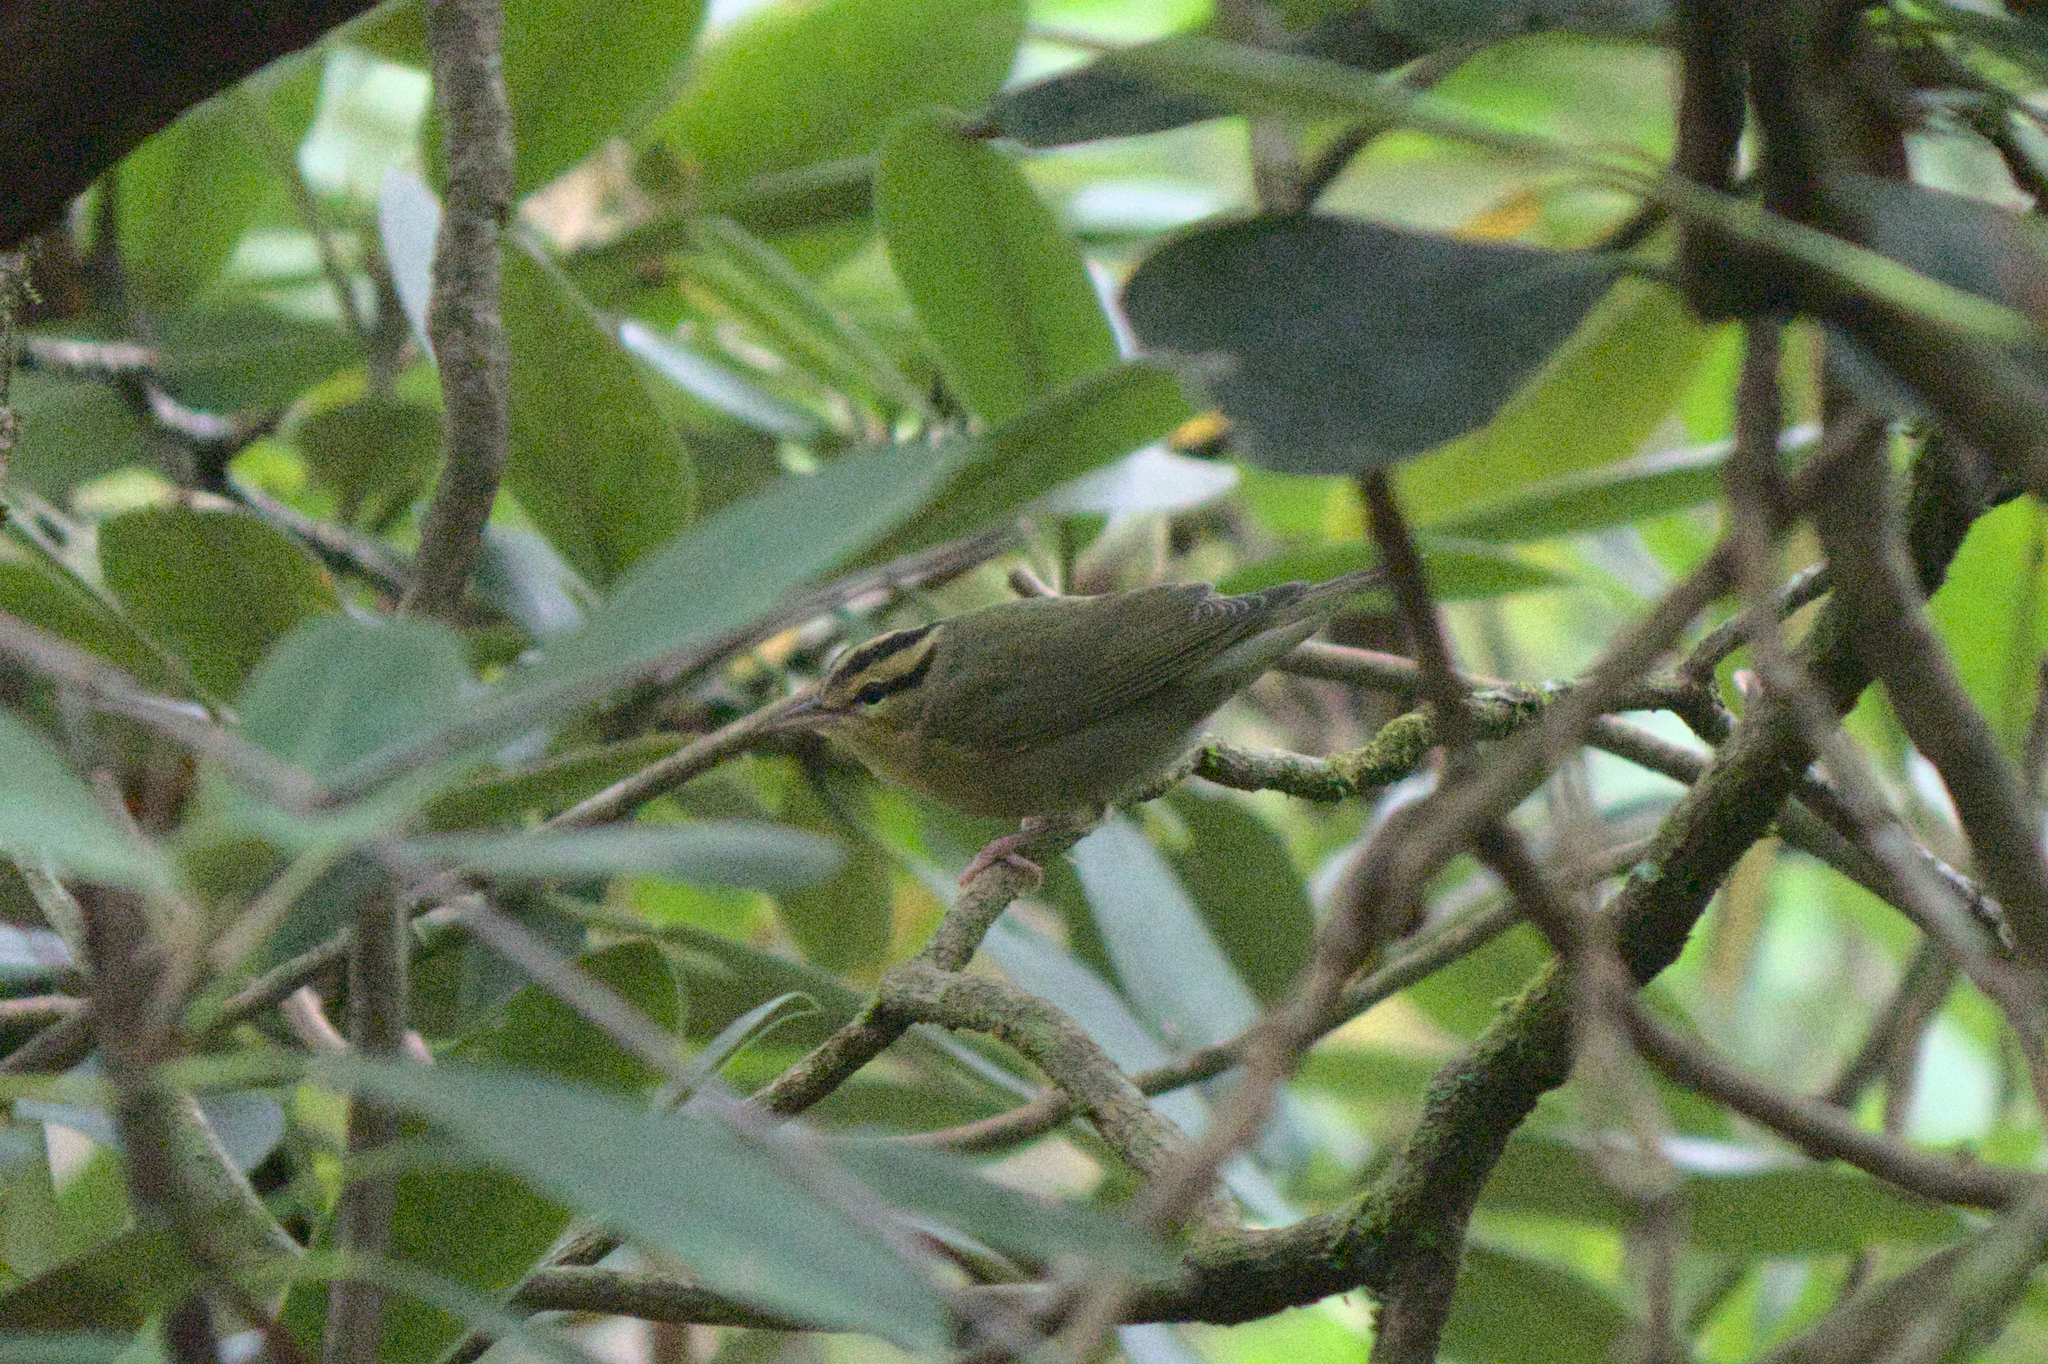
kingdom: Animalia
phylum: Chordata
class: Aves
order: Passeriformes
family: Parulidae
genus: Helmitheros
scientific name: Helmitheros vermivorum
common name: Worm-eating warbler
